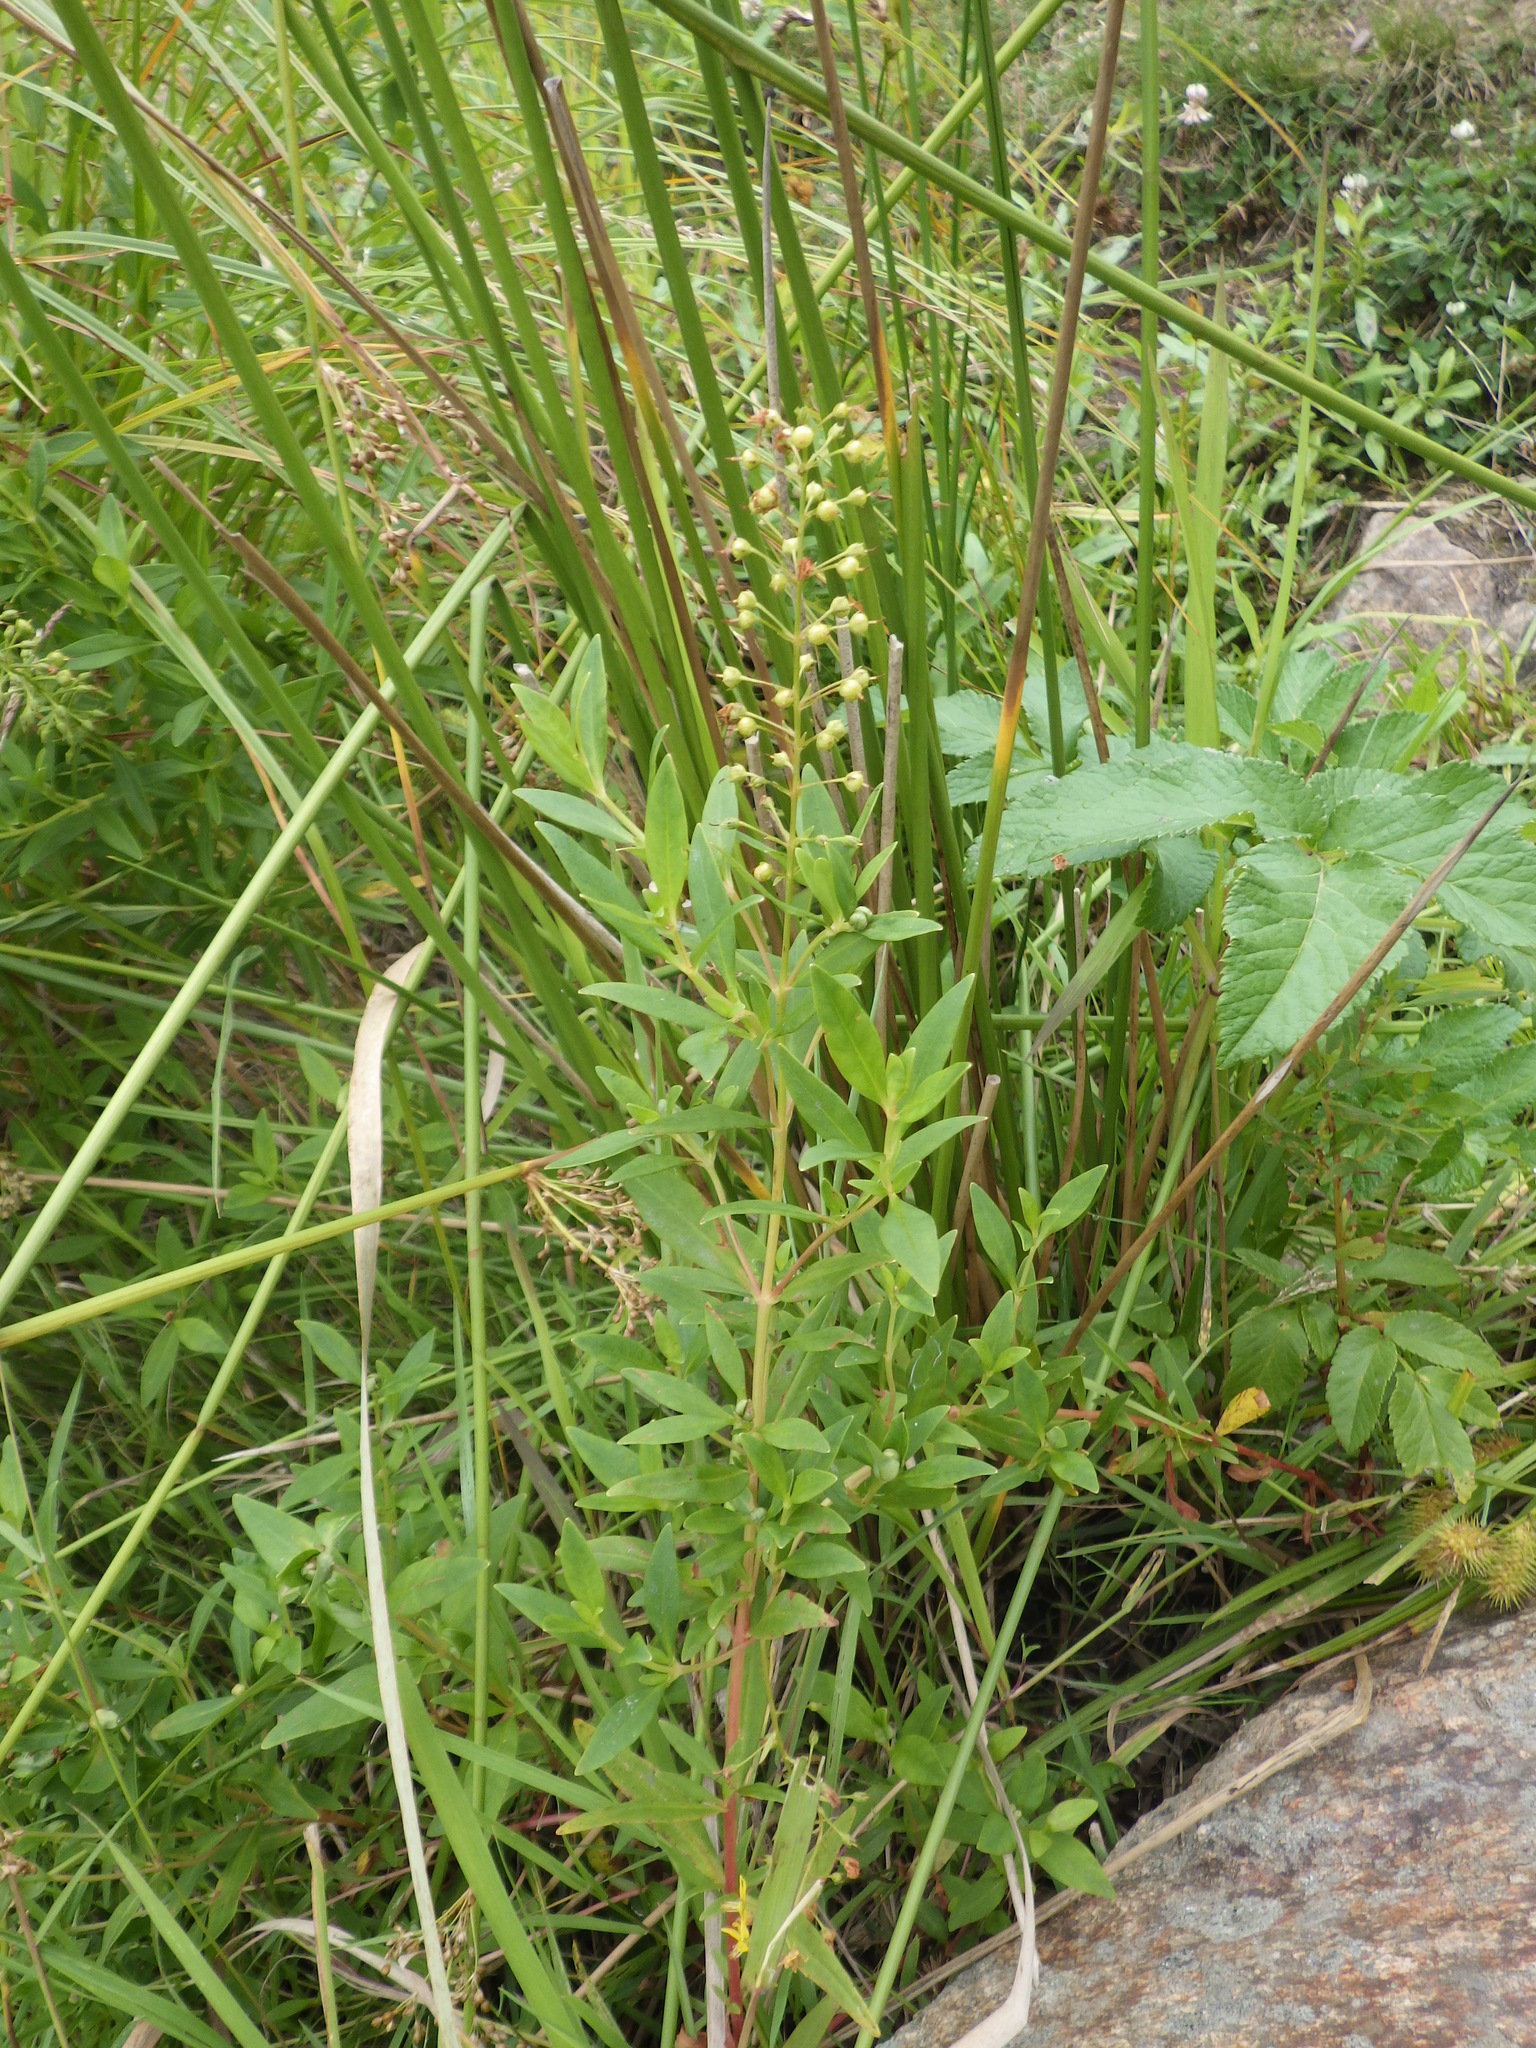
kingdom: Plantae
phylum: Tracheophyta
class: Magnoliopsida
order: Ericales
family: Primulaceae
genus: Lysimachia
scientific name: Lysimachia terrestris
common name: Lake loosestrife
